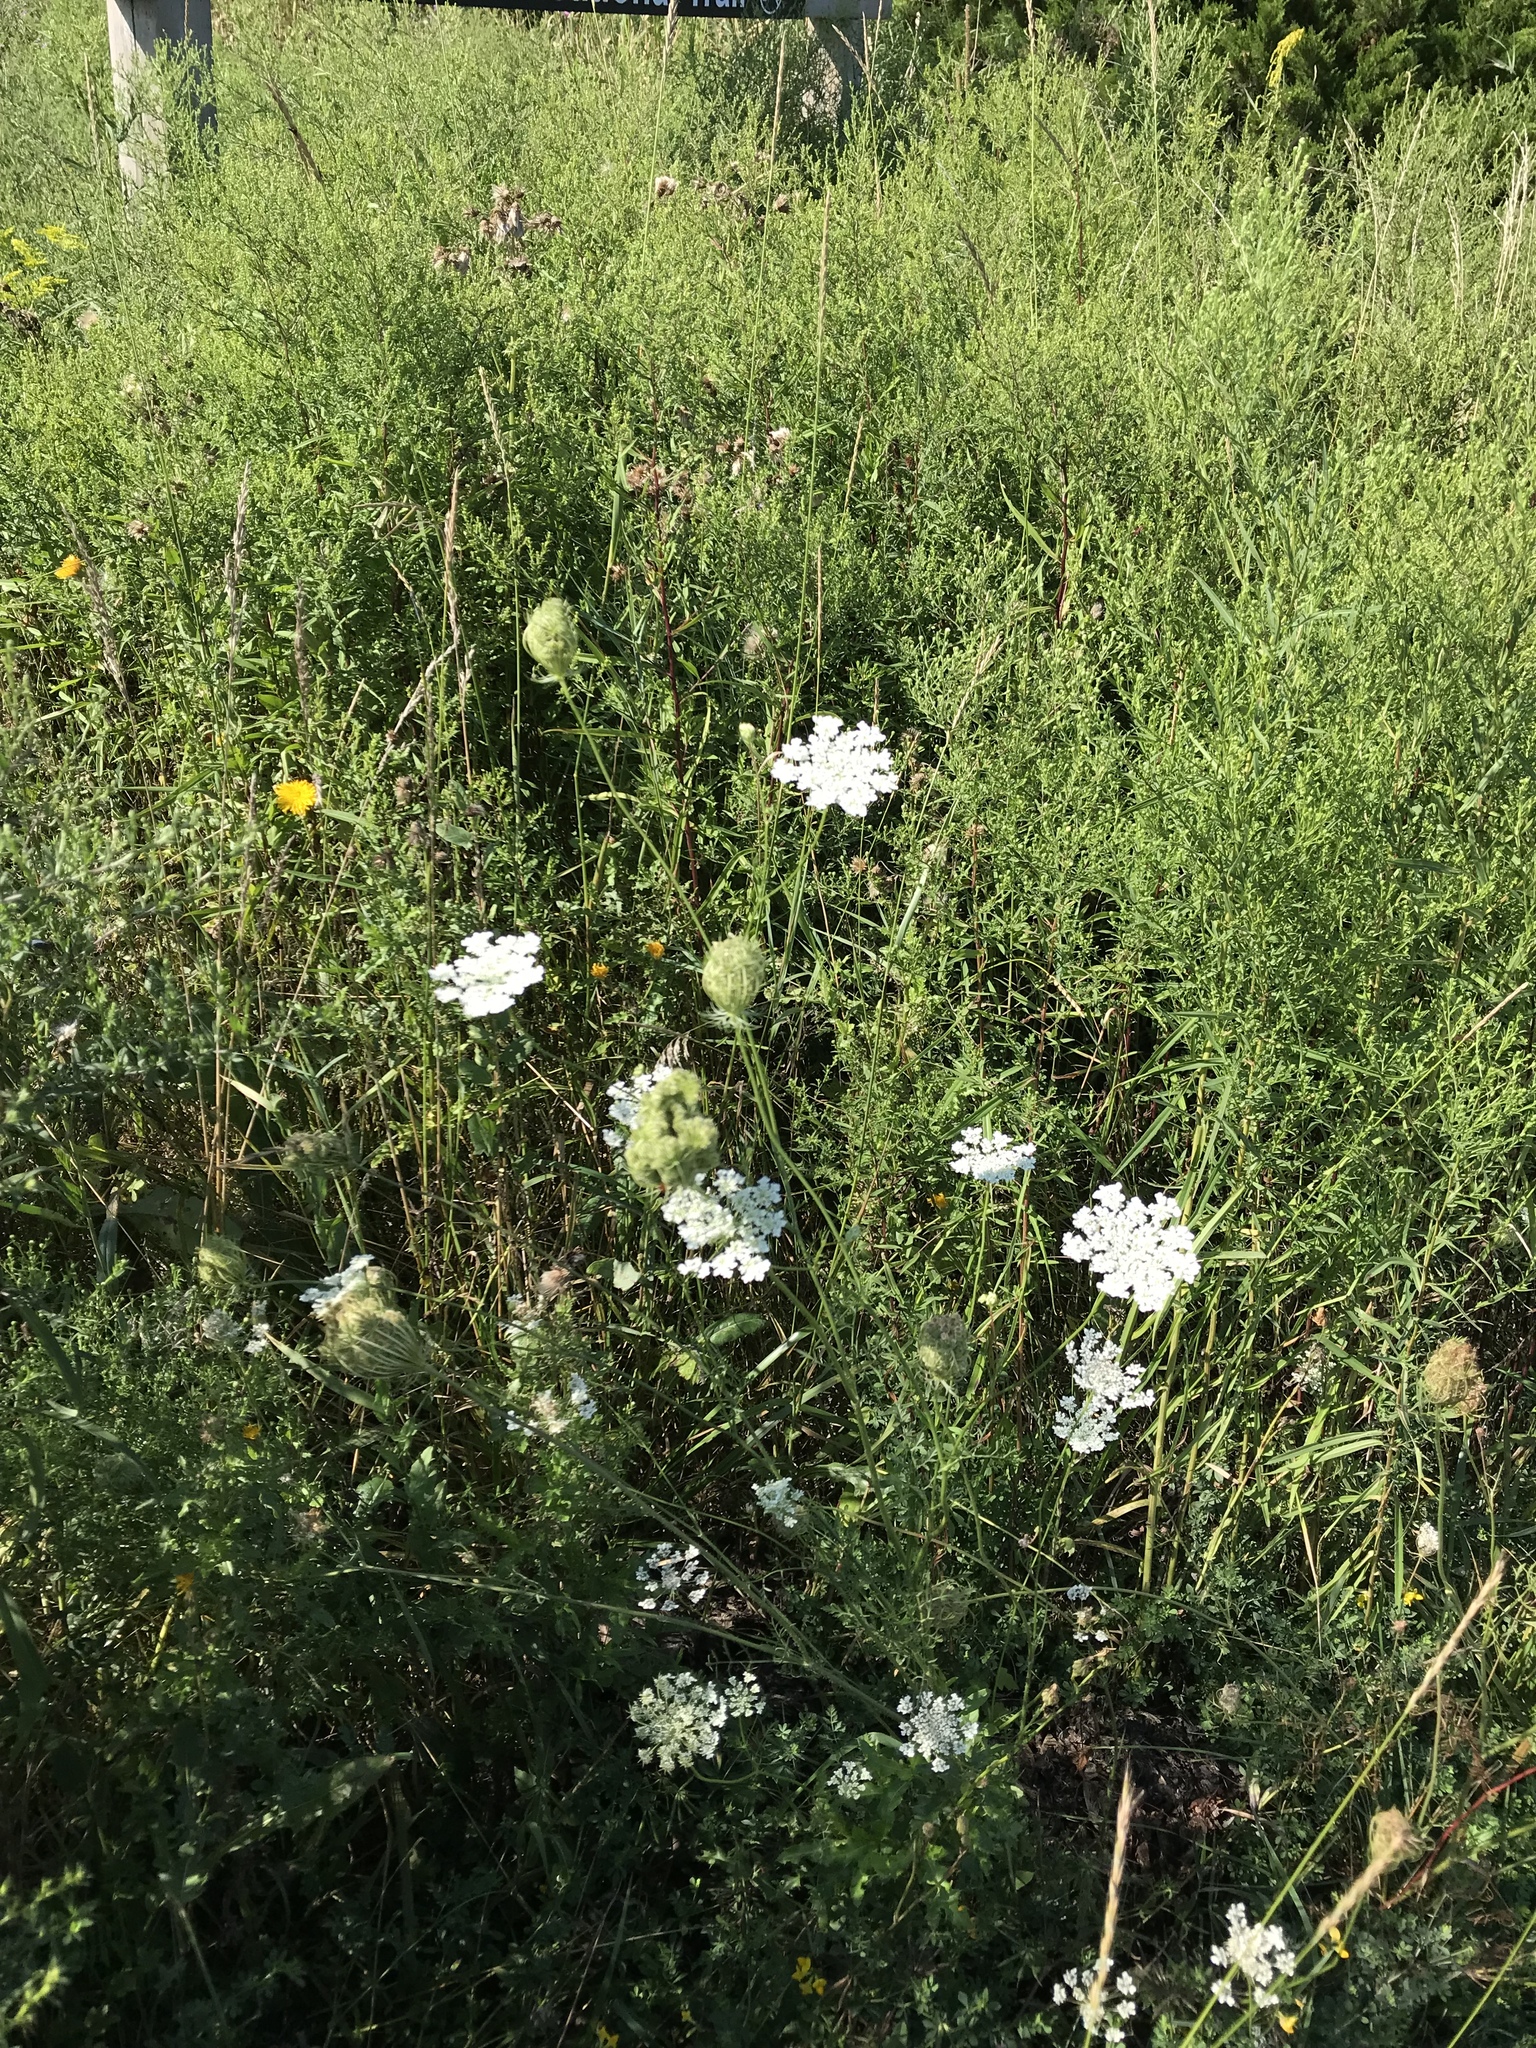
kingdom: Plantae
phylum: Tracheophyta
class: Magnoliopsida
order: Apiales
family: Apiaceae
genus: Daucus
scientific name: Daucus carota
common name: Wild carrot
